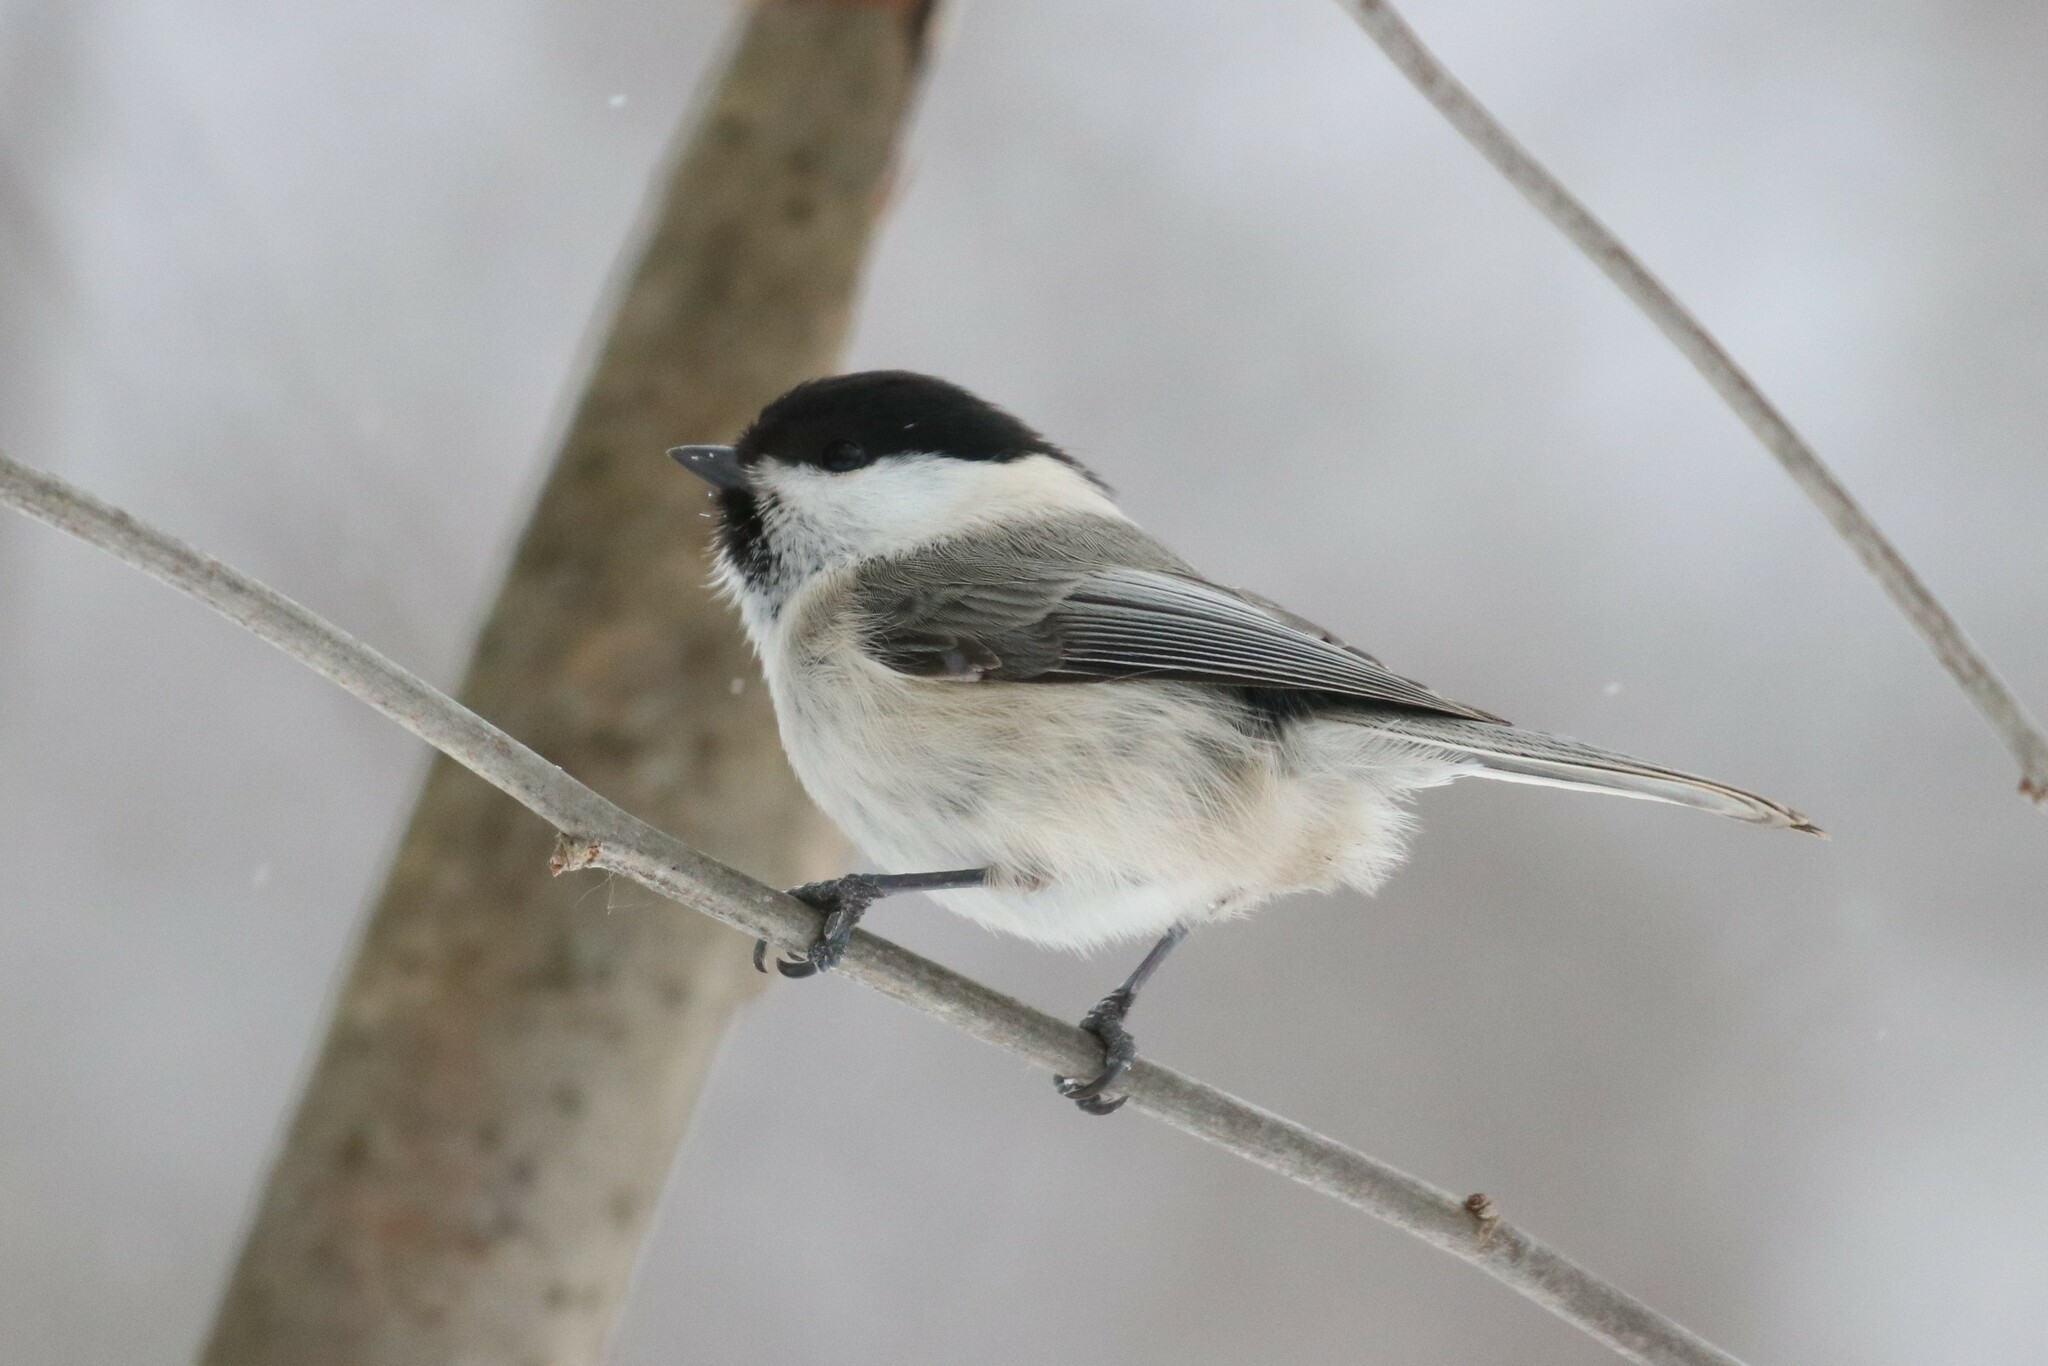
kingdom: Animalia
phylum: Chordata
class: Aves
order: Passeriformes
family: Paridae
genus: Poecile
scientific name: Poecile montanus
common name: Willow tit
